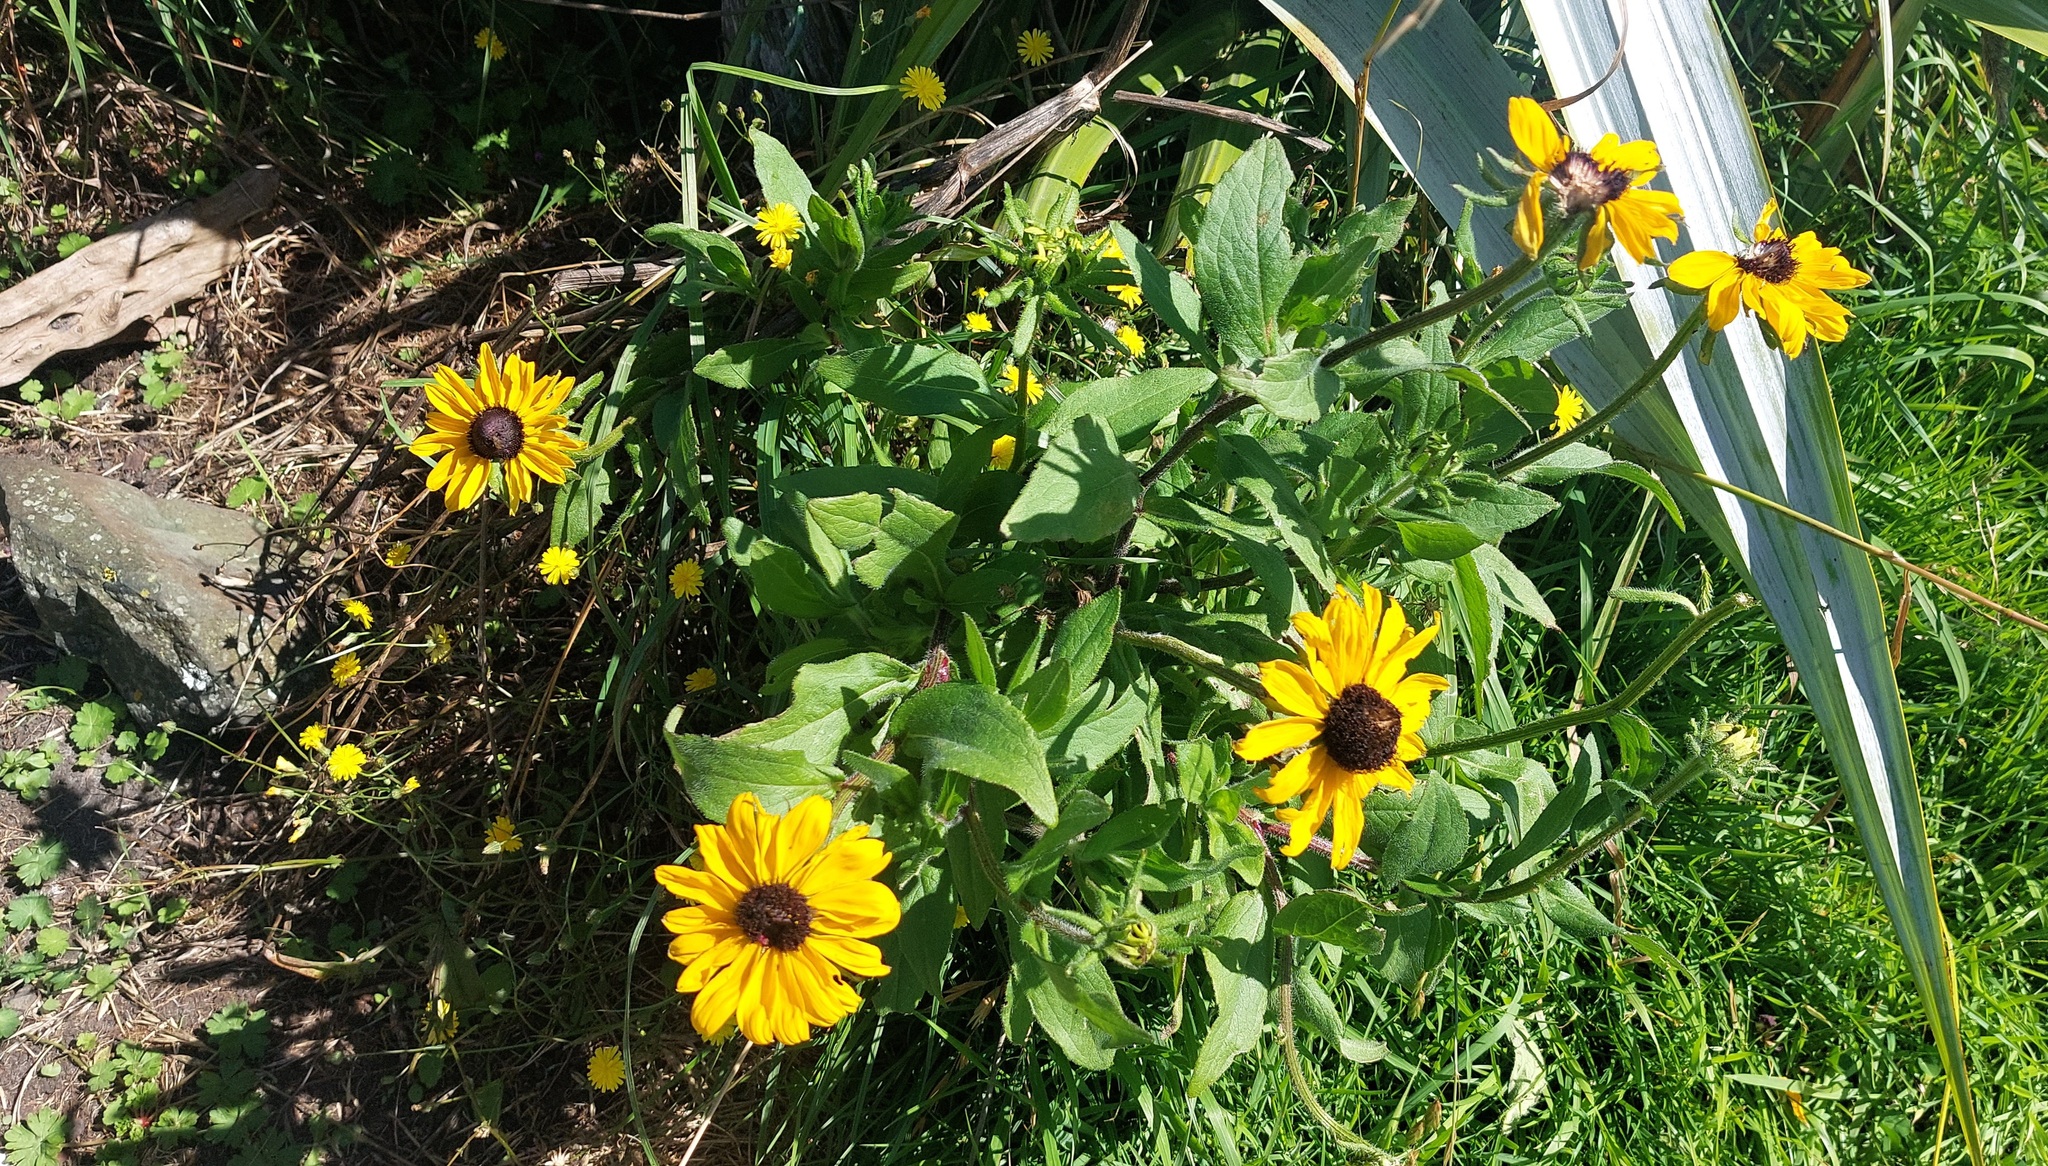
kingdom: Plantae
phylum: Tracheophyta
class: Magnoliopsida
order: Asterales
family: Asteraceae
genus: Rudbeckia
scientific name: Rudbeckia hirta
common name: Black-eyed-susan
